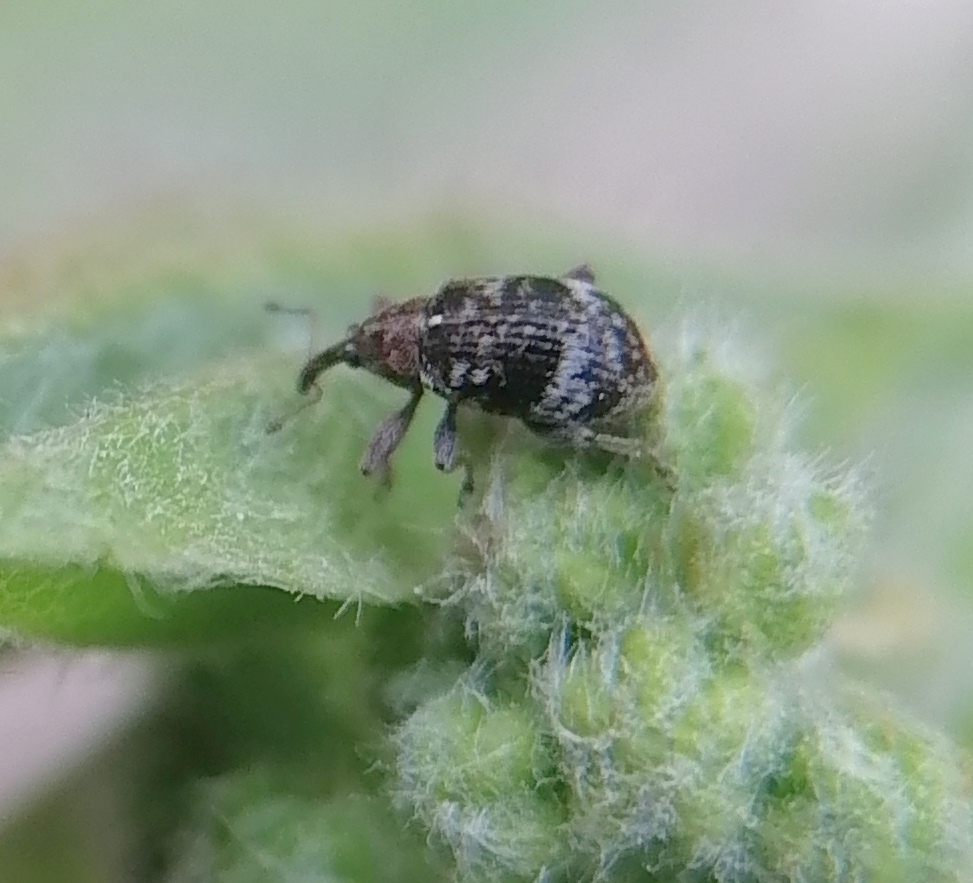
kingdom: Animalia
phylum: Arthropoda
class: Insecta
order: Coleoptera
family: Curculionidae
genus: Anthonomus
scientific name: Anthonomus conspersus
